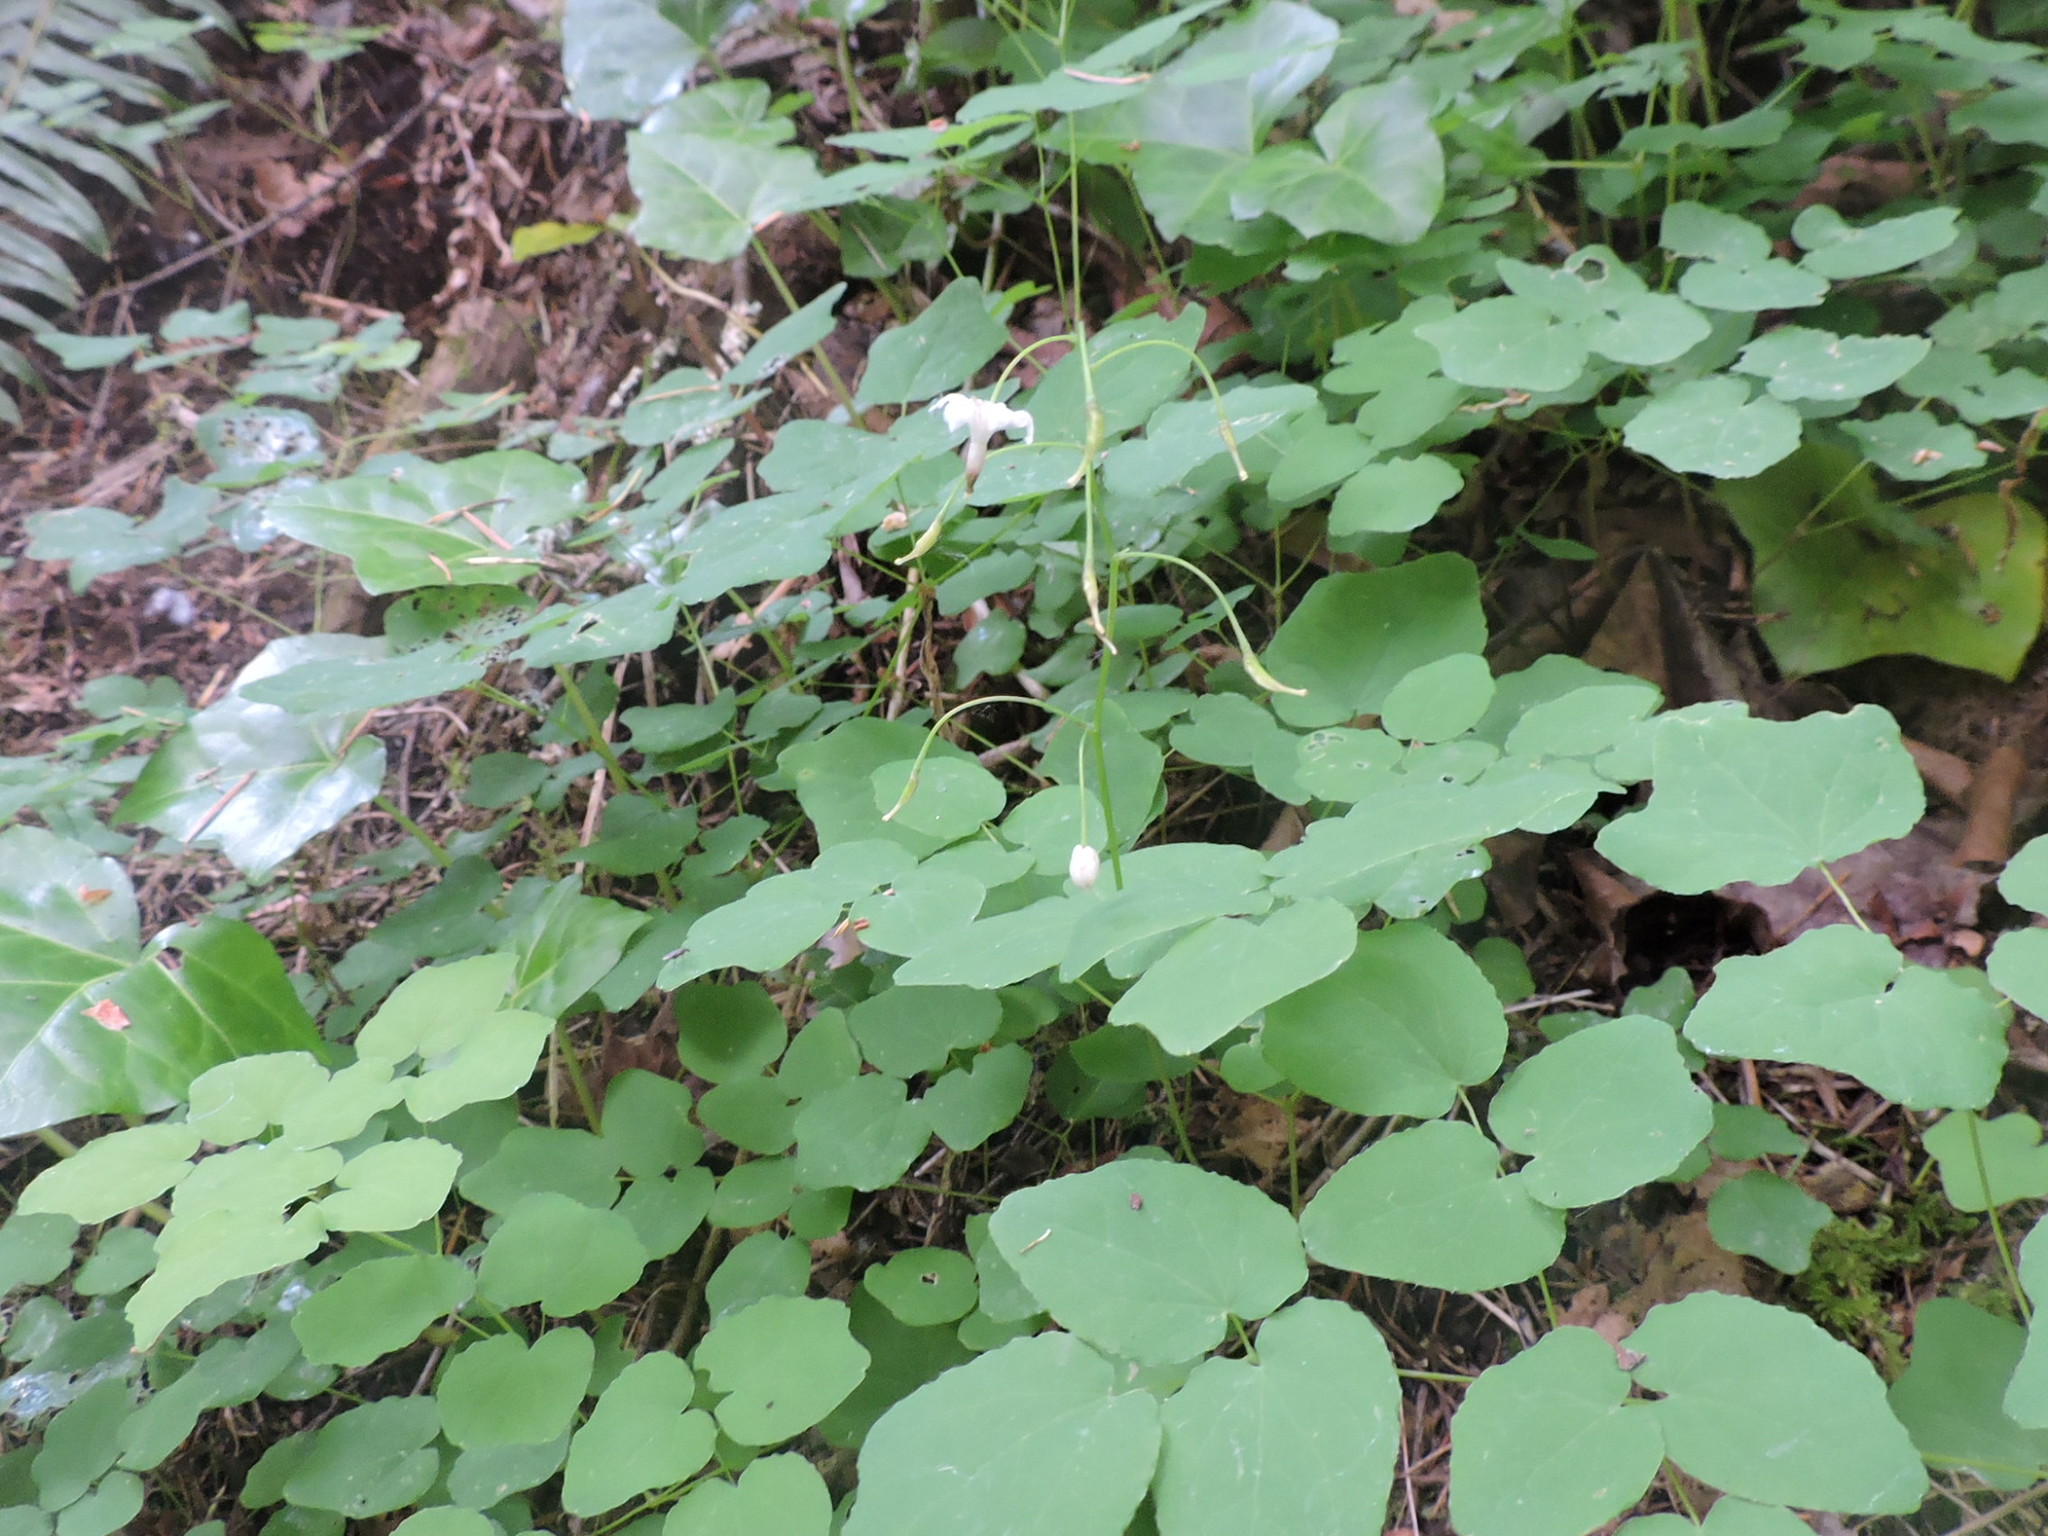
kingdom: Plantae
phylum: Tracheophyta
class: Magnoliopsida
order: Ranunculales
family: Berberidaceae
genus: Vancouveria
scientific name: Vancouveria hexandra
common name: Northern inside-out-flower
